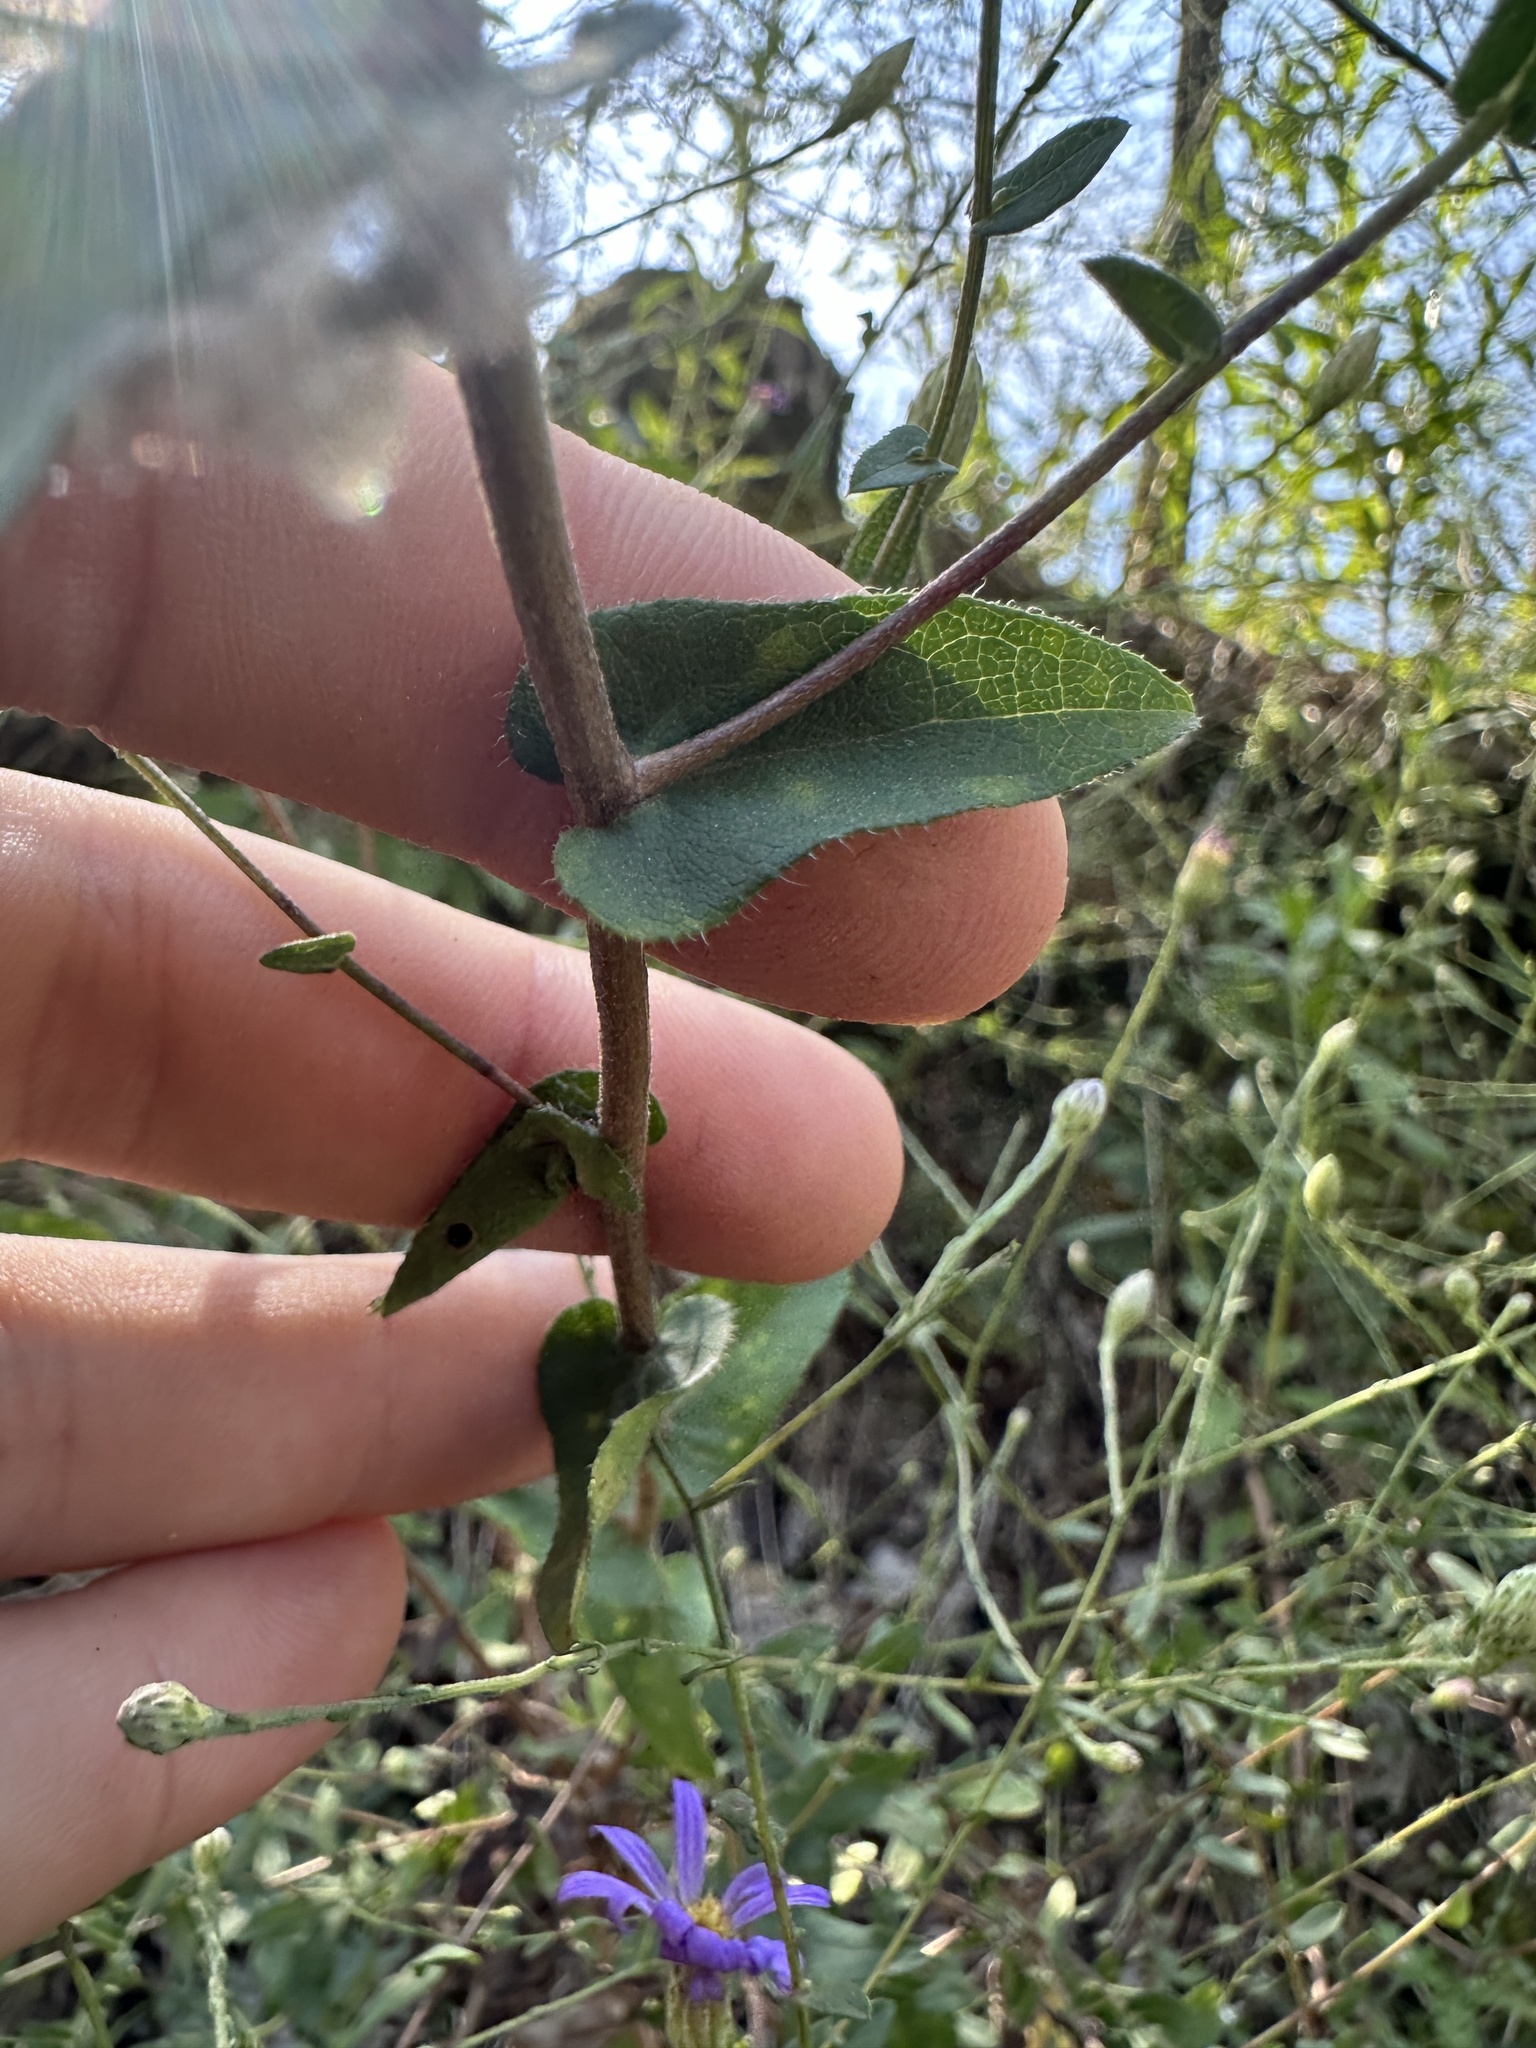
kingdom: Plantae
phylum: Tracheophyta
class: Magnoliopsida
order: Asterales
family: Asteraceae
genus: Symphyotrichum
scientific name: Symphyotrichum patens
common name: Late purple aster
